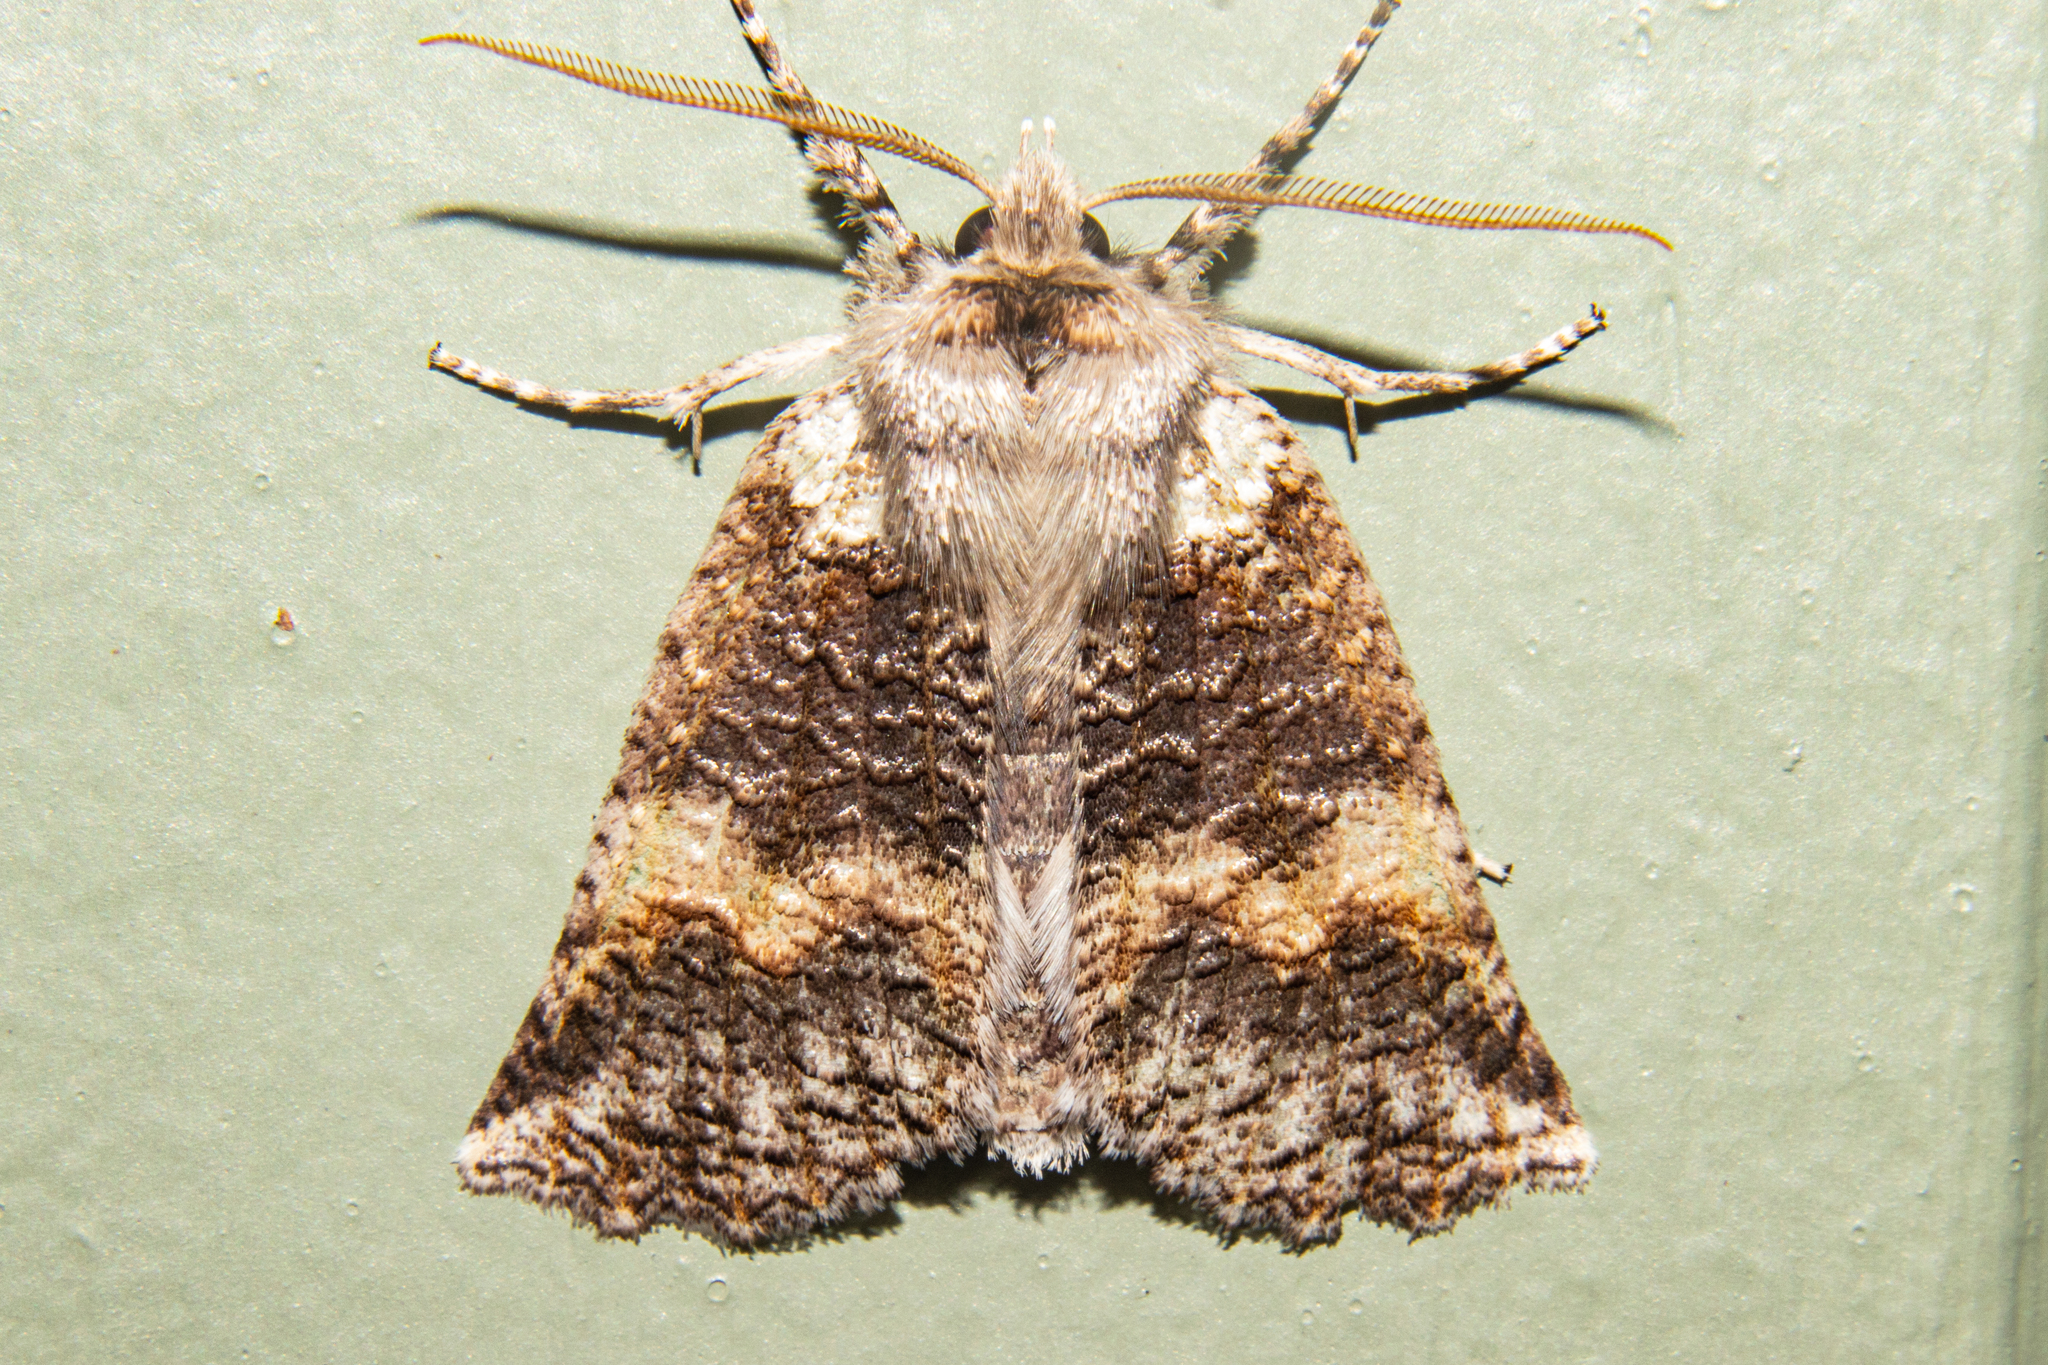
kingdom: Animalia
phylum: Arthropoda
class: Insecta
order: Lepidoptera
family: Geometridae
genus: Declana
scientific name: Declana floccosa
